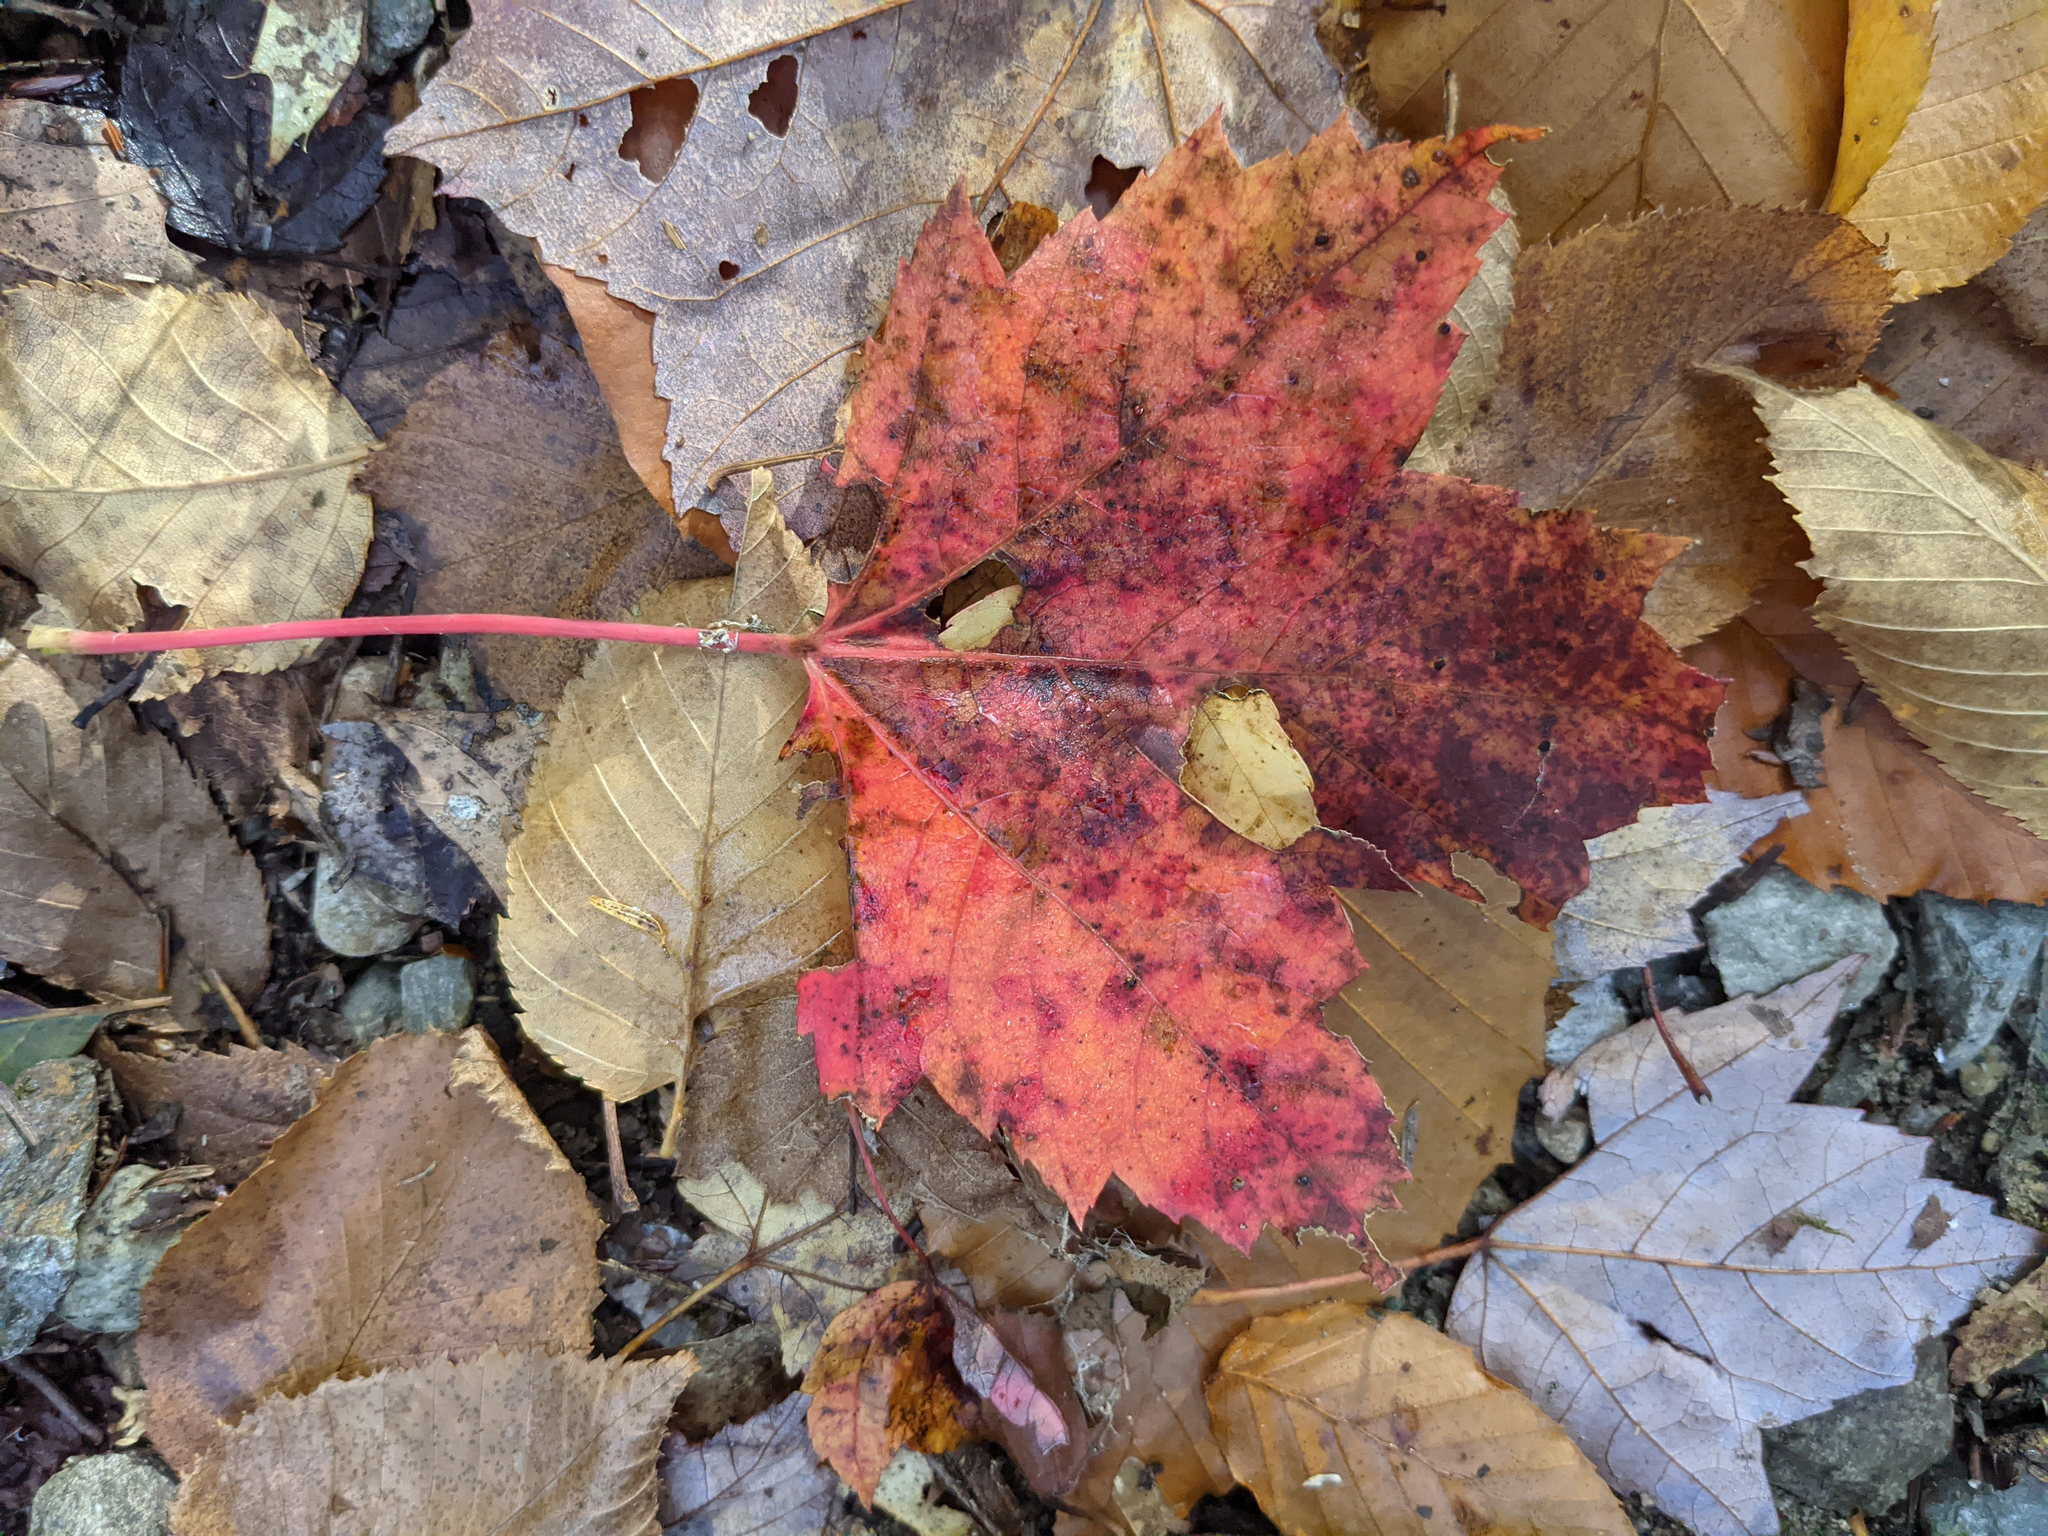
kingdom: Plantae
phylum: Tracheophyta
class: Magnoliopsida
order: Sapindales
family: Sapindaceae
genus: Acer
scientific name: Acer rubrum
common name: Red maple
